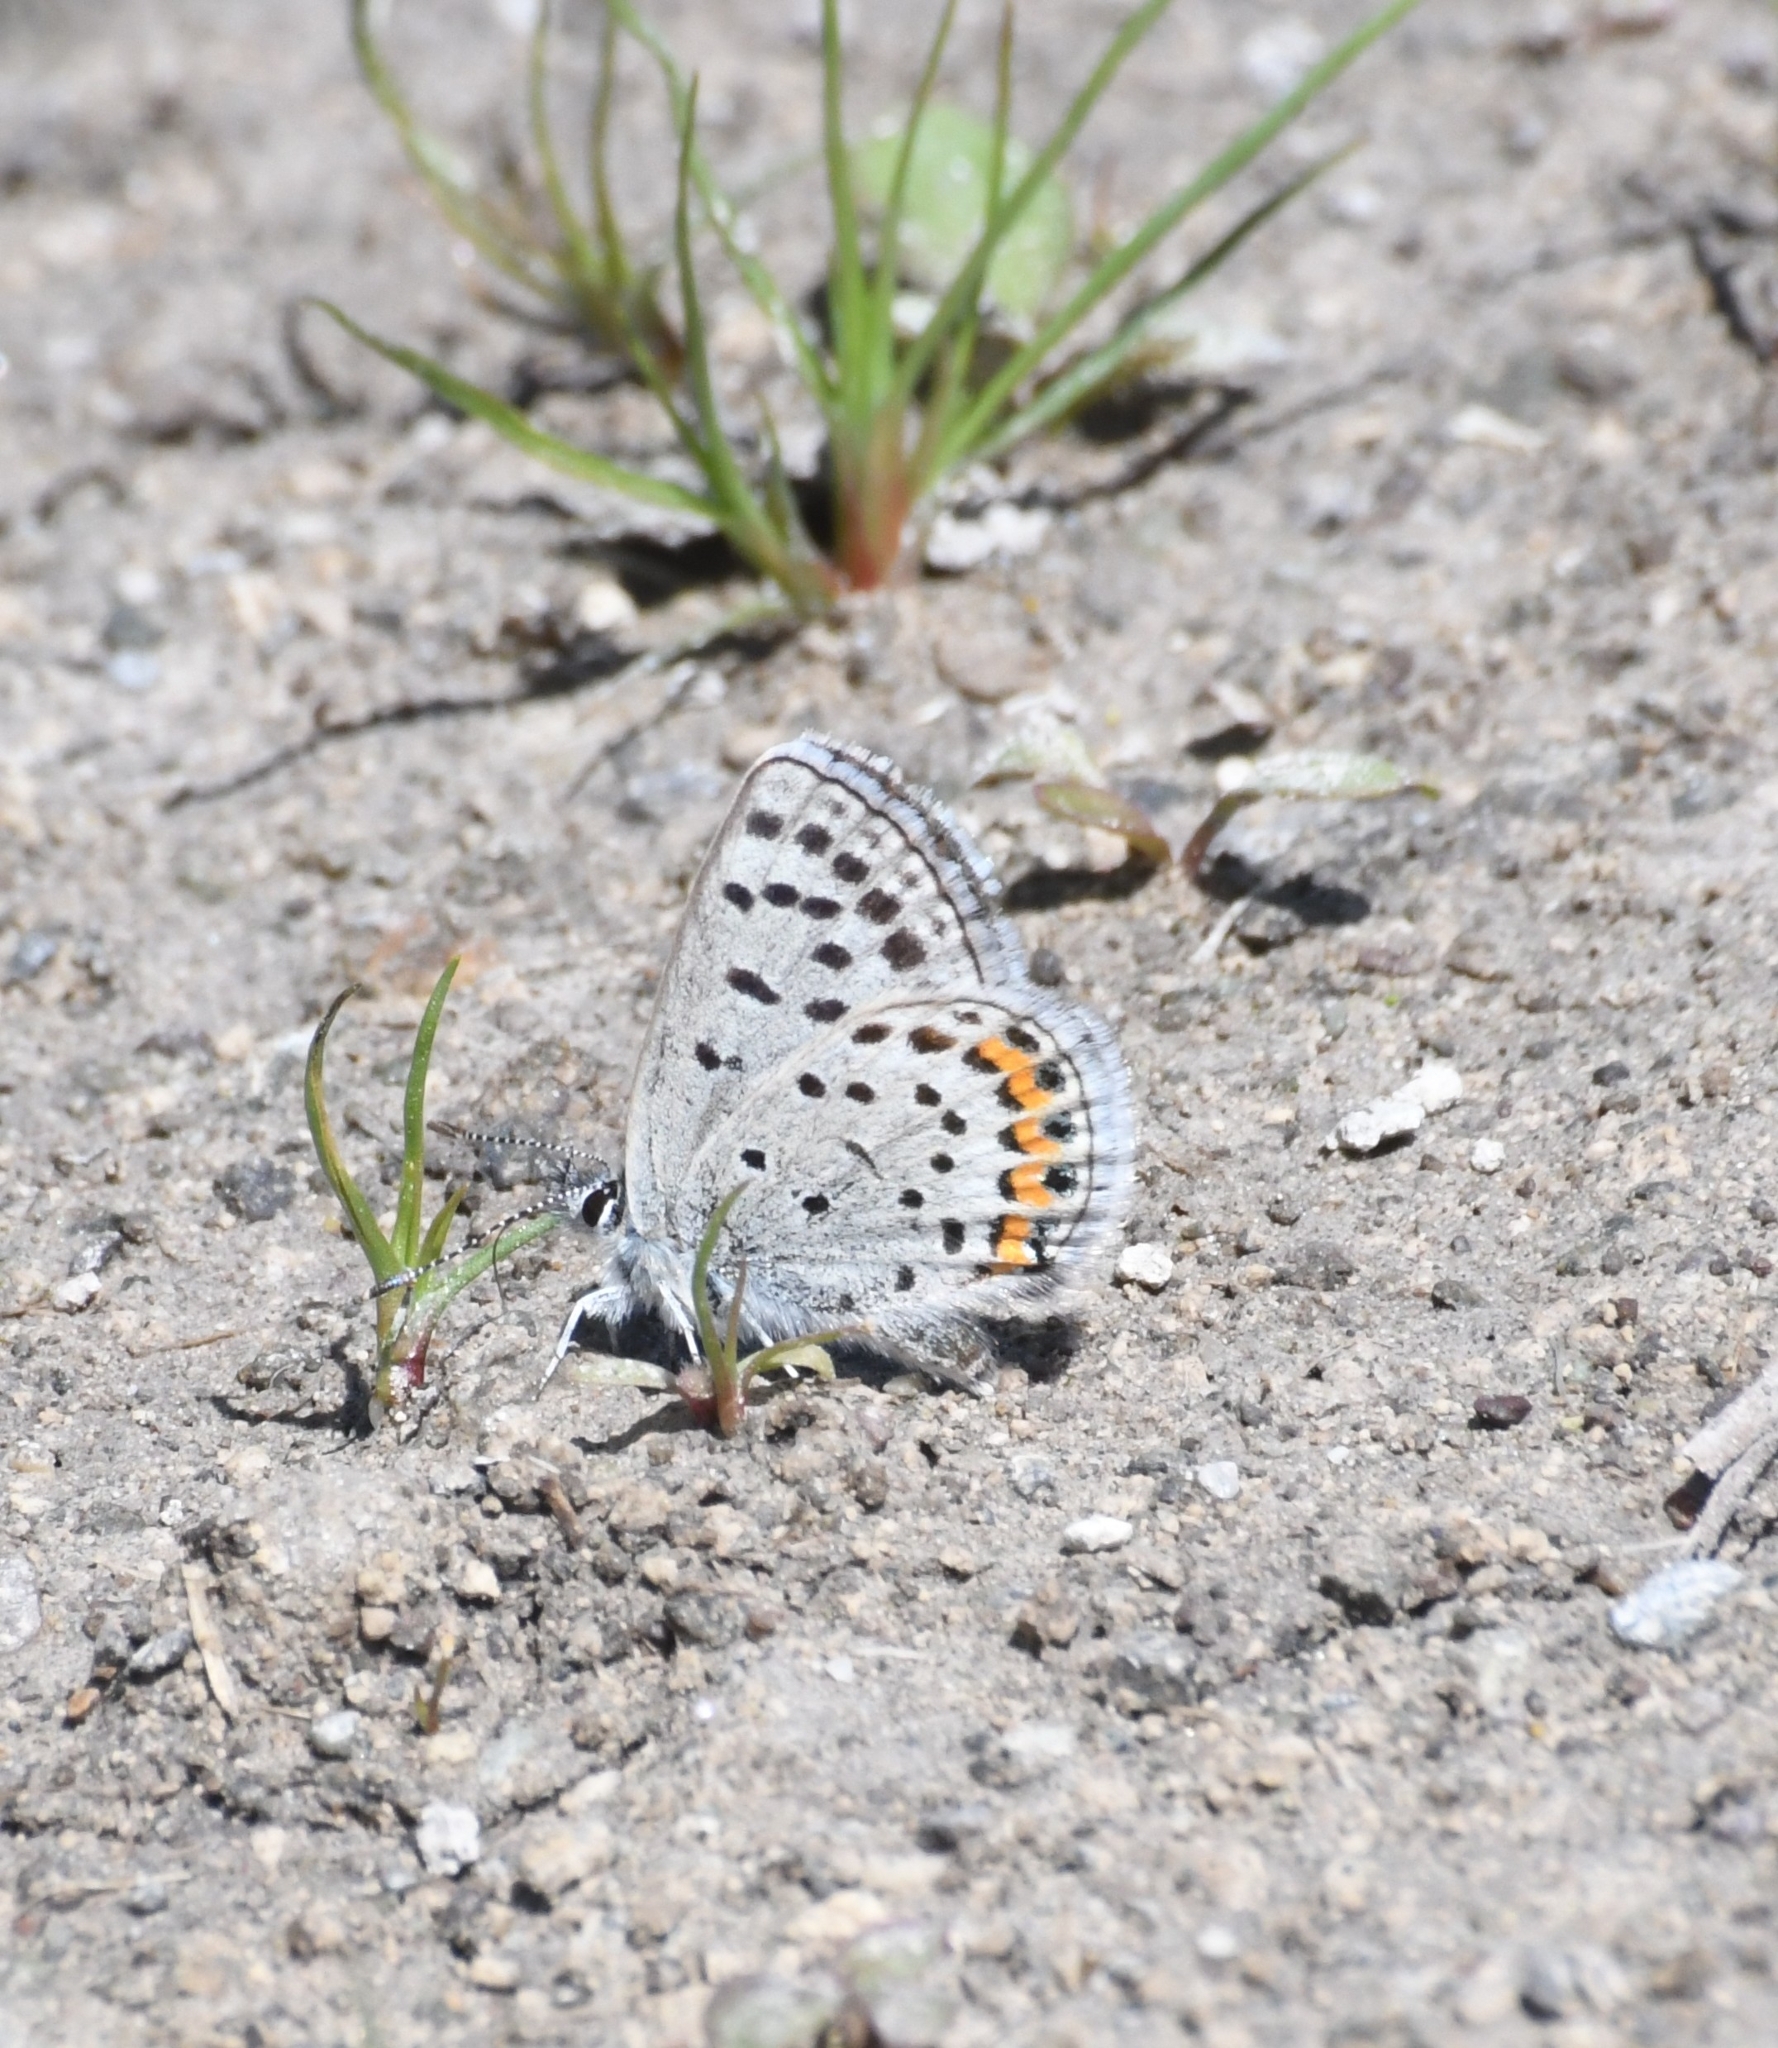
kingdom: Animalia
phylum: Arthropoda
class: Insecta
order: Lepidoptera
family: Lycaenidae
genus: Icaricia
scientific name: Icaricia lupini
